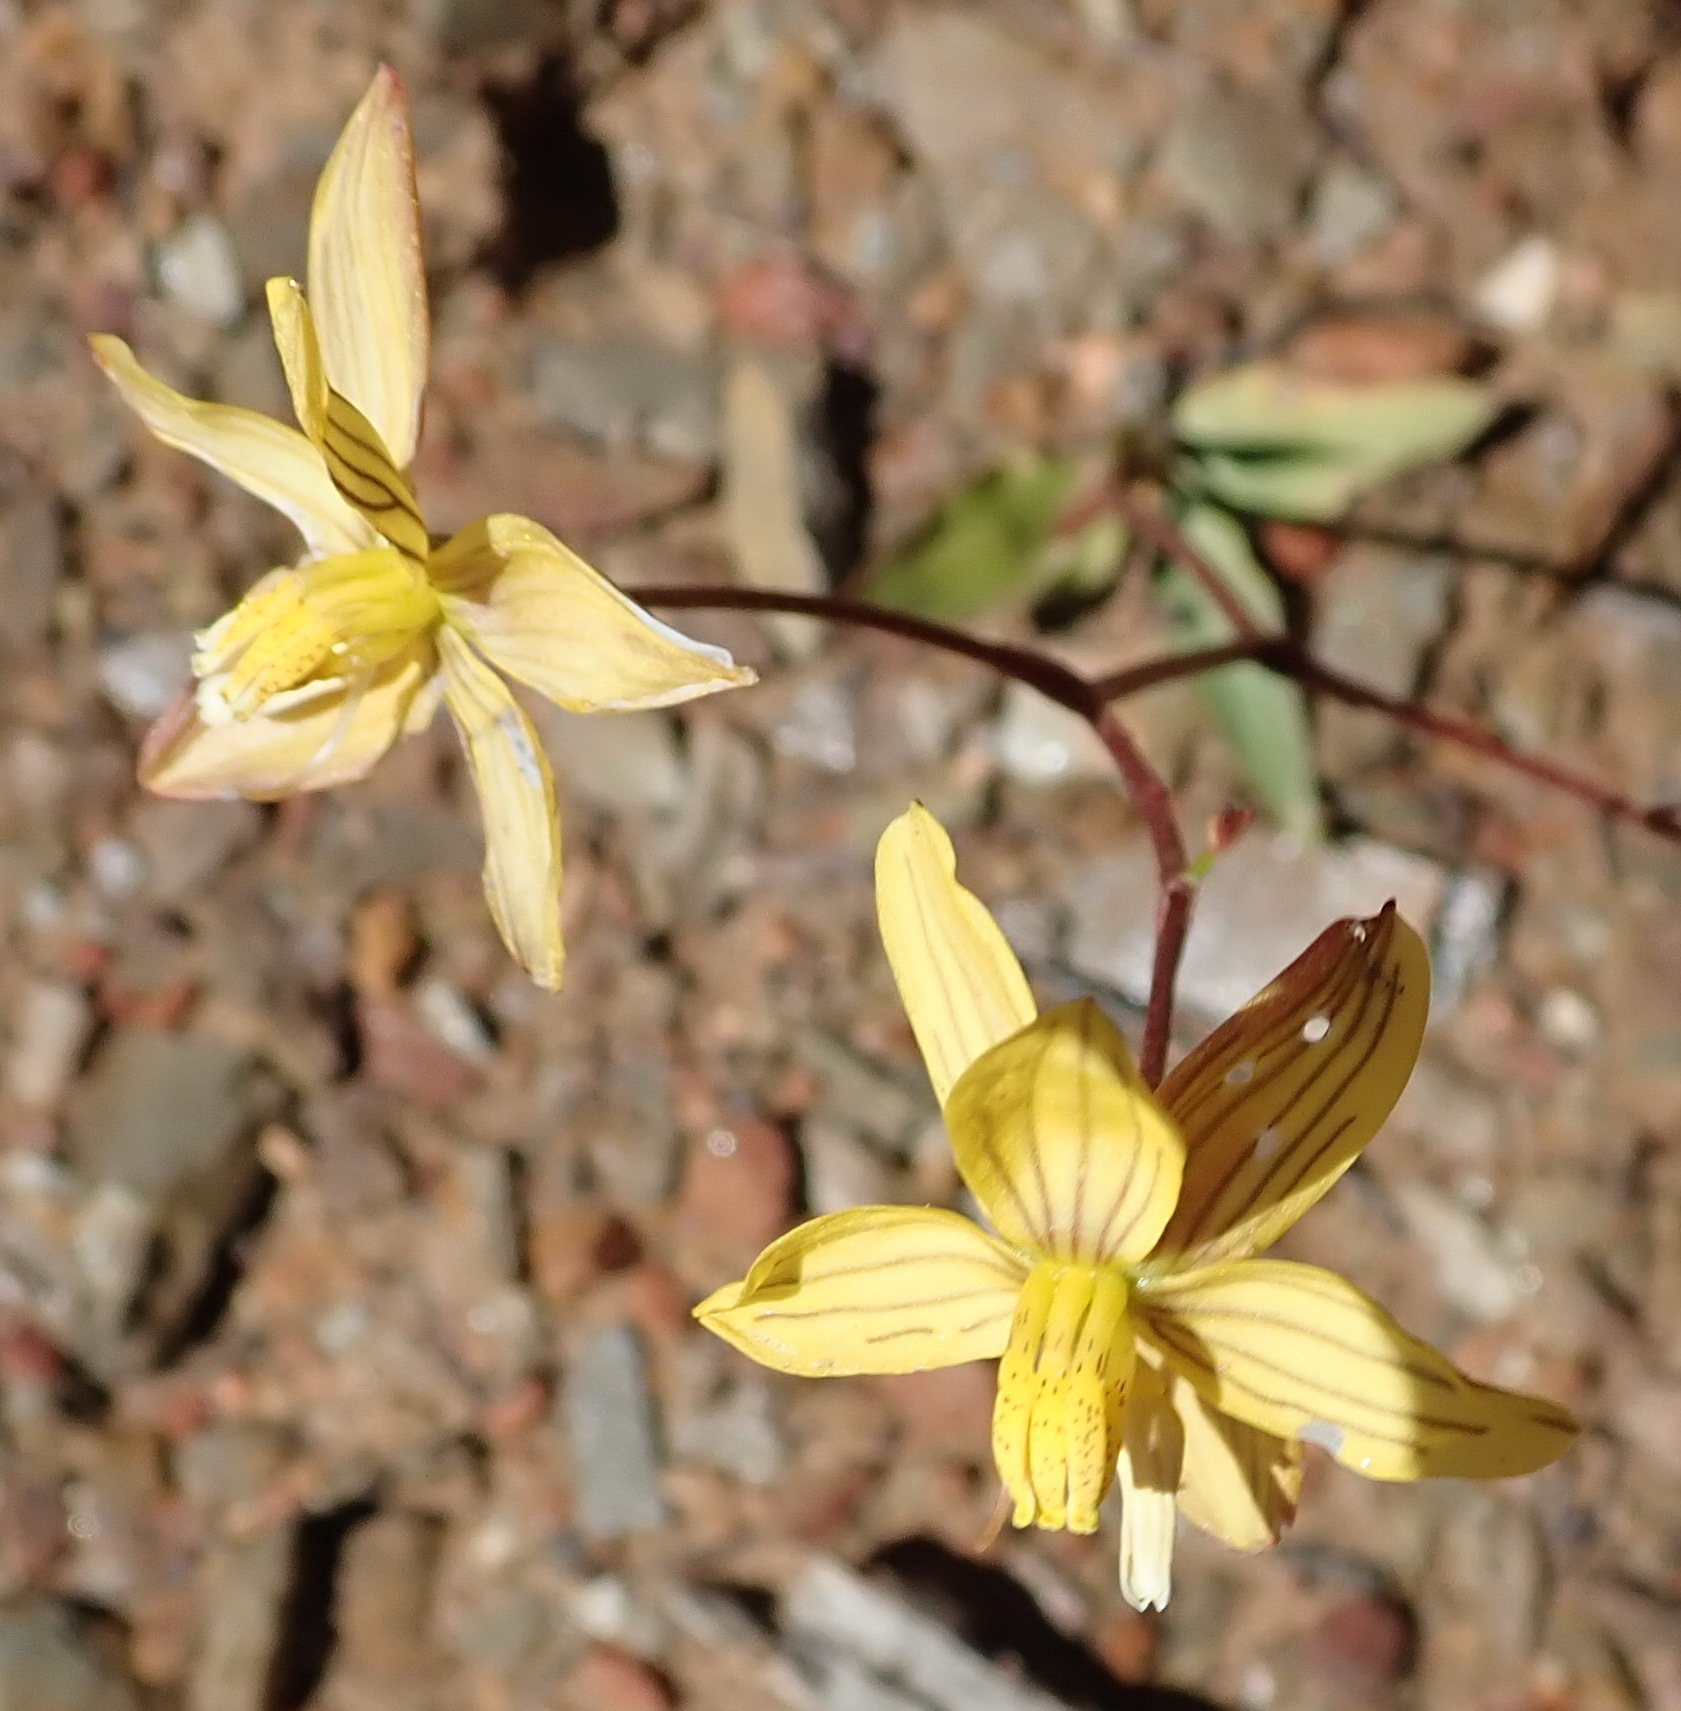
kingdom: Plantae
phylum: Tracheophyta
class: Liliopsida
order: Asparagales
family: Tecophilaeaceae
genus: Cyanella
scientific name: Cyanella lutea
